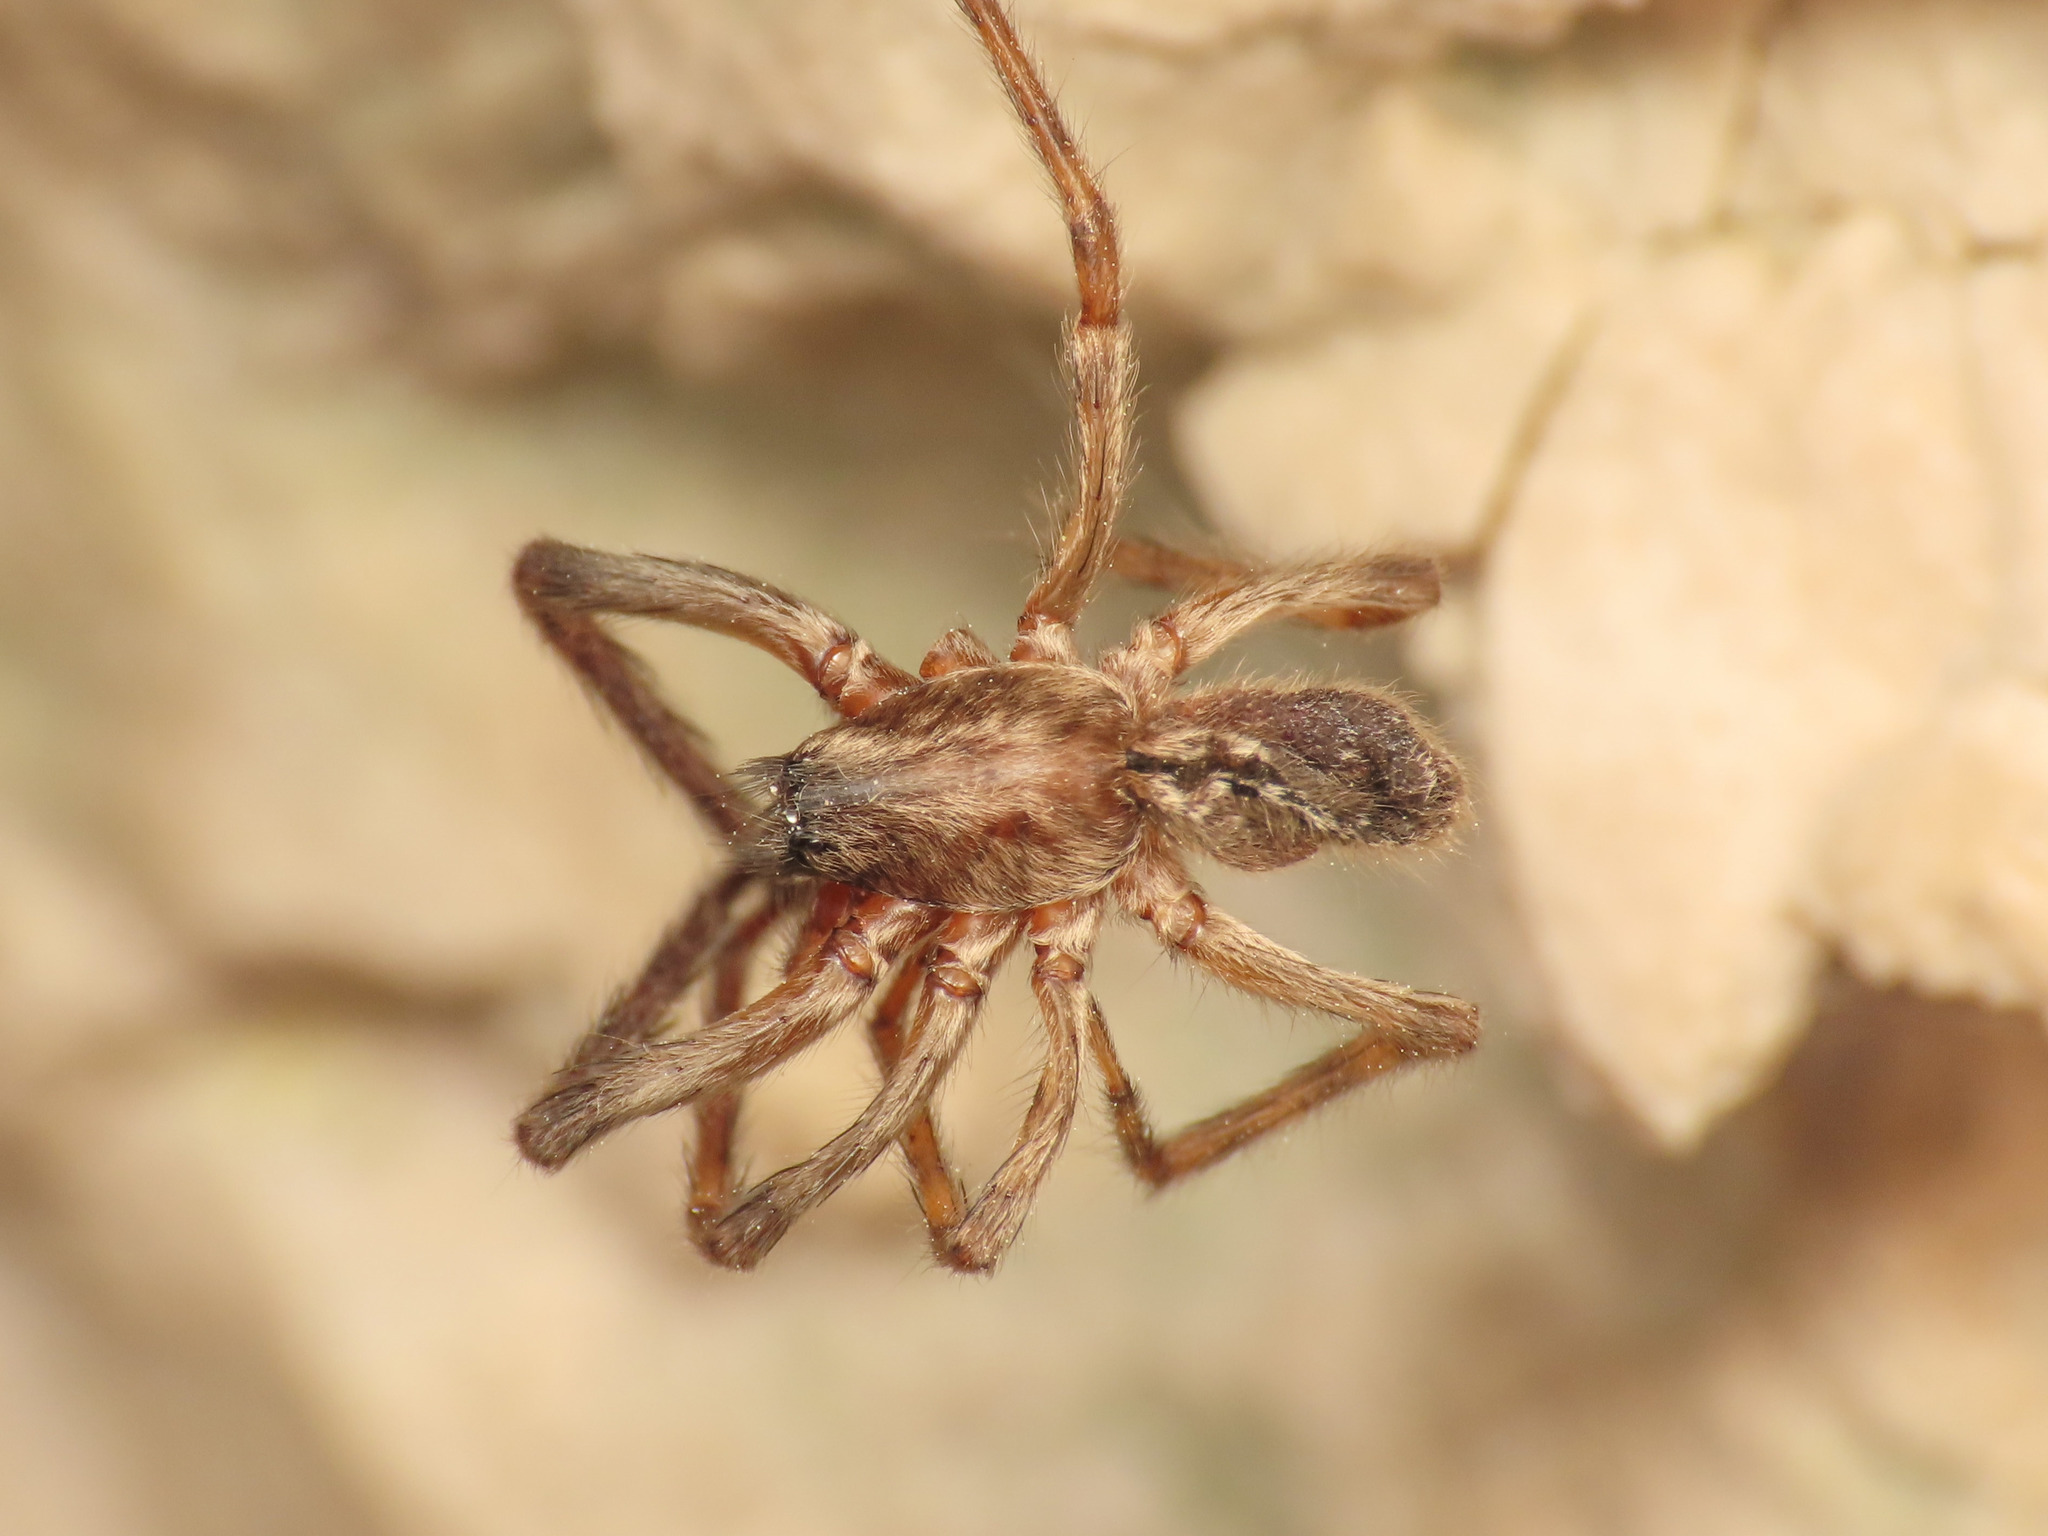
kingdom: Animalia
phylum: Arthropoda
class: Arachnida
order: Araneae
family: Segestriidae
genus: Segestria
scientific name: Segestria bavarica
